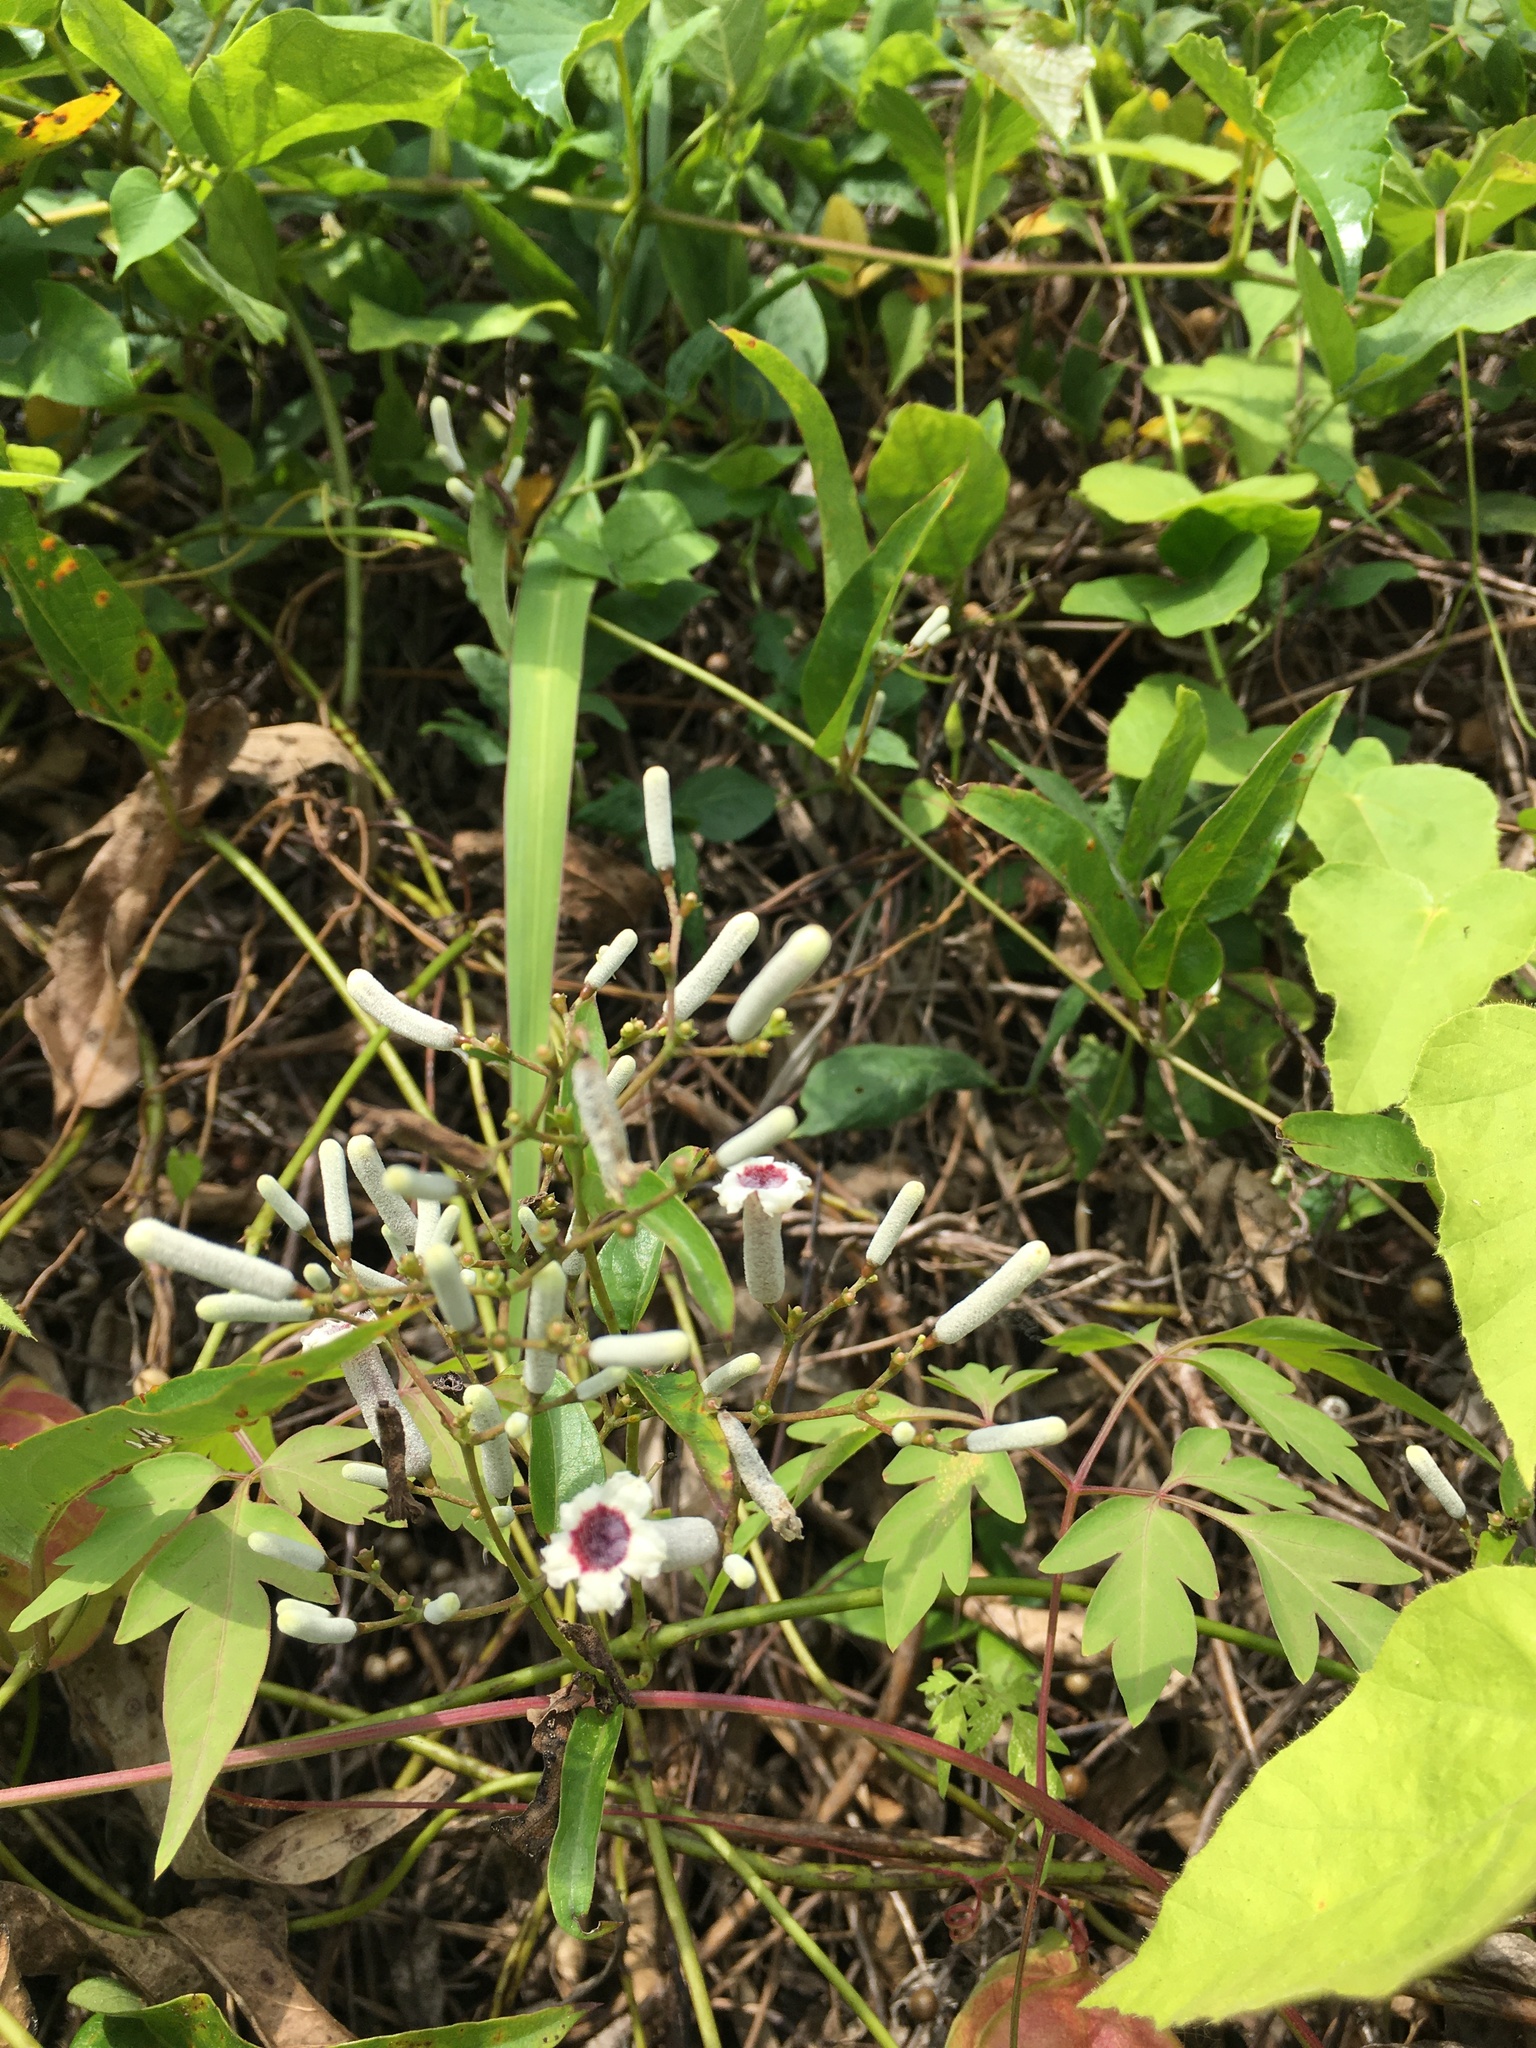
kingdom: Plantae
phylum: Tracheophyta
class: Magnoliopsida
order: Gentianales
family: Rubiaceae
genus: Paederia
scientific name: Paederia foetida
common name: Stinkvine
